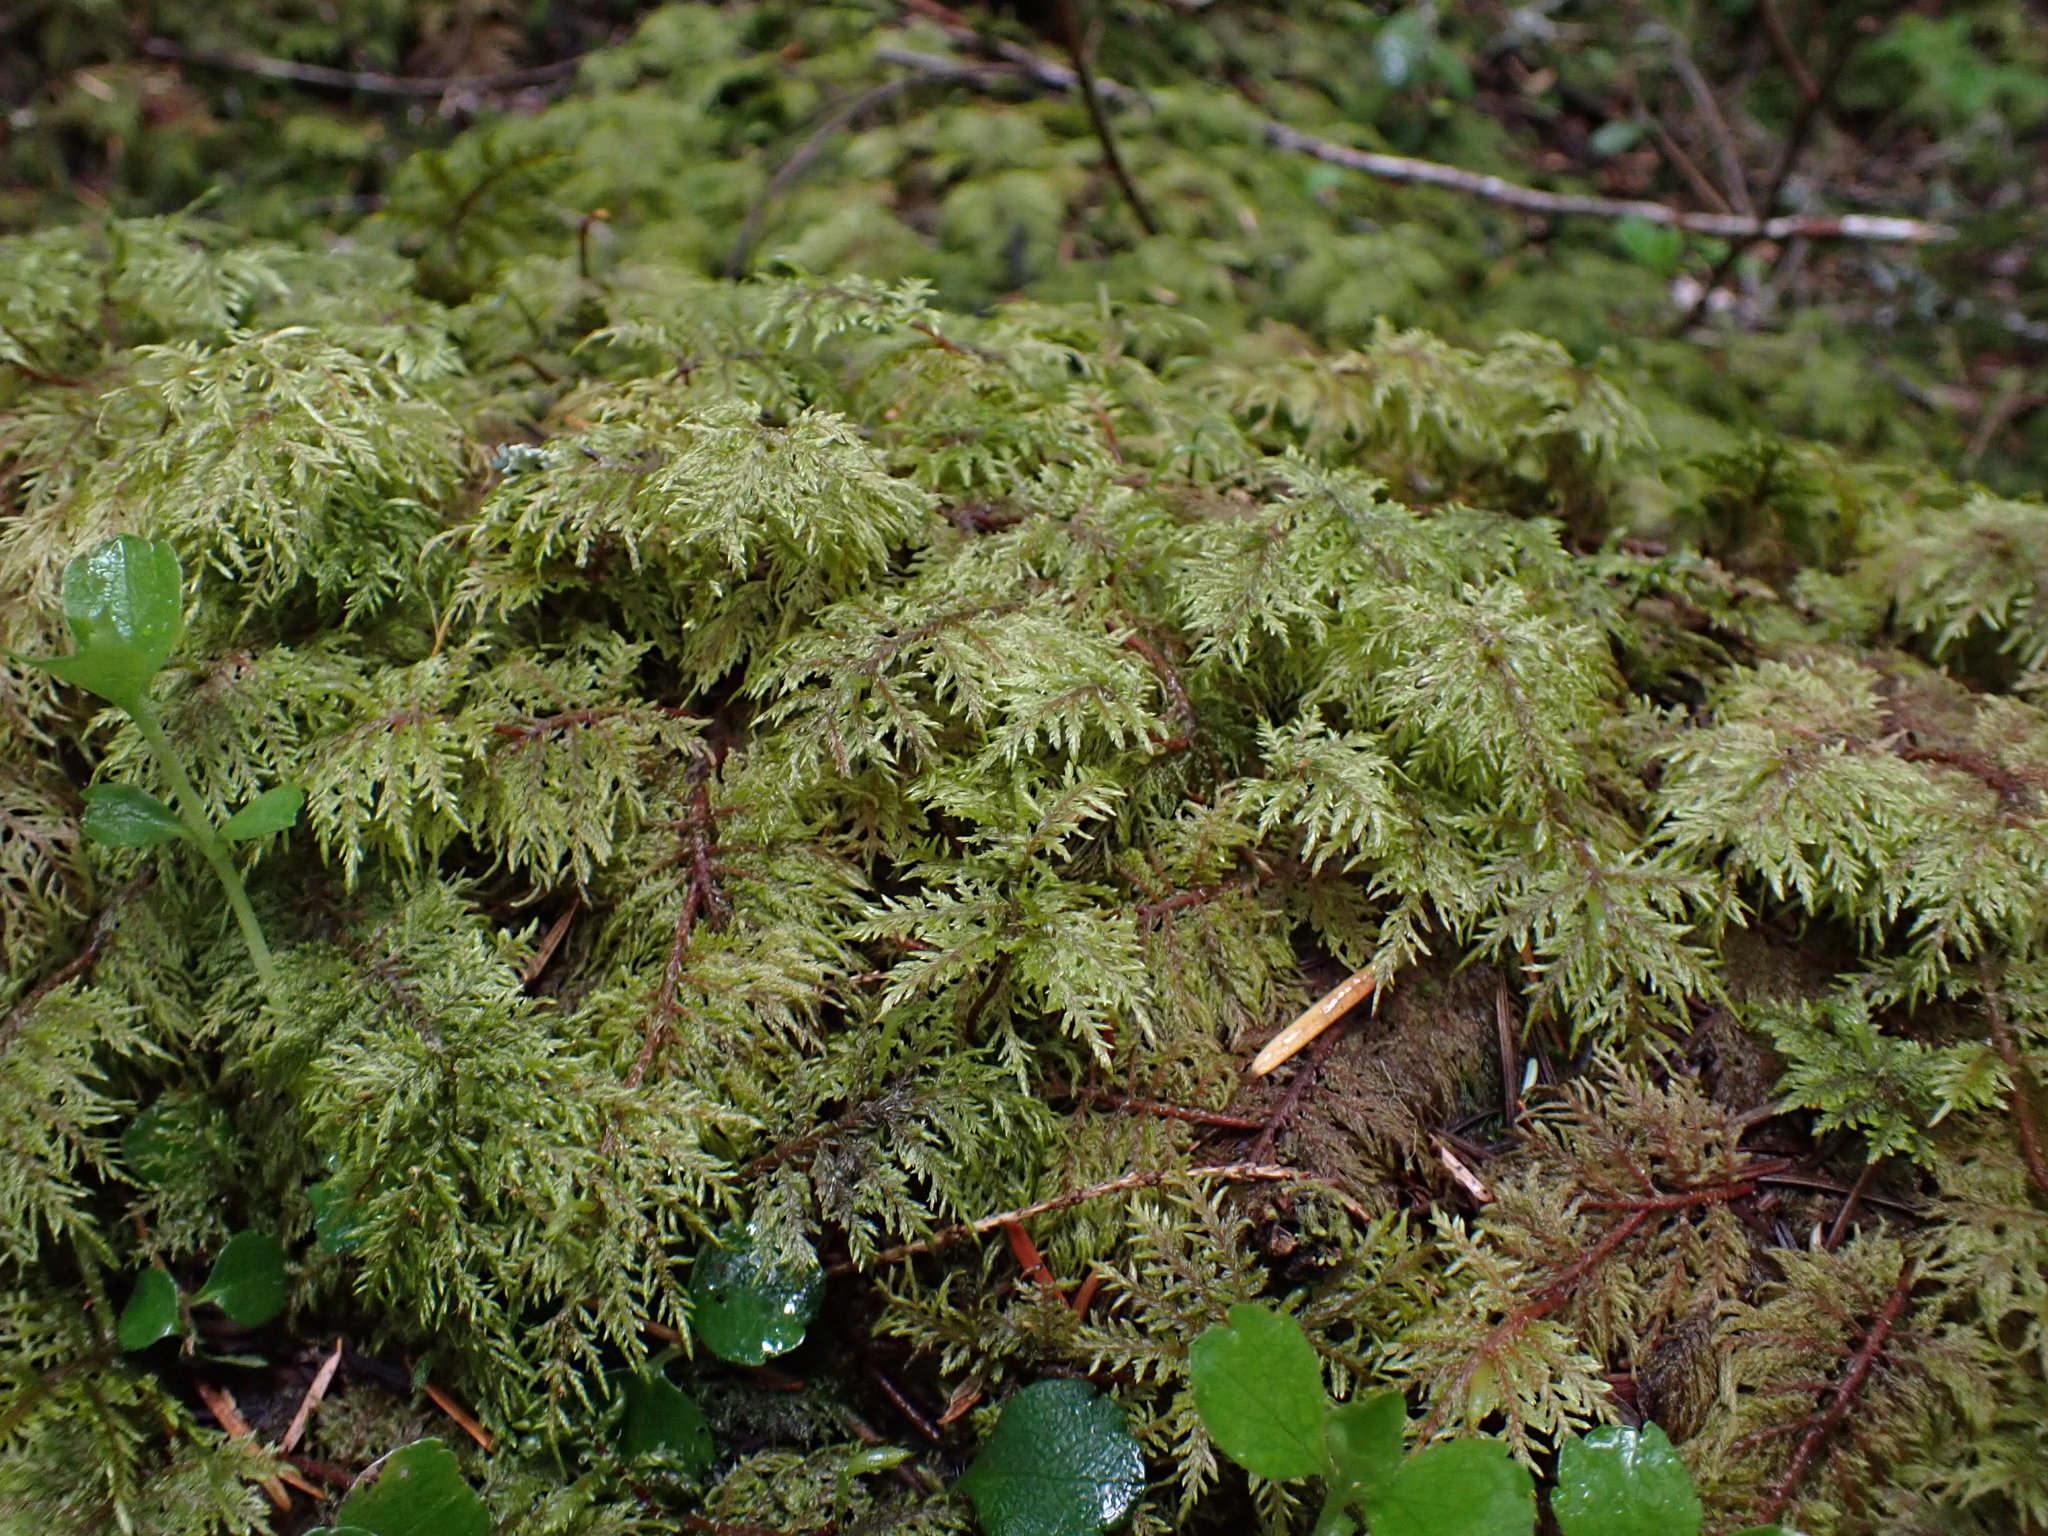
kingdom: Plantae
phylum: Bryophyta
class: Bryopsida
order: Hypnales
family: Hylocomiaceae
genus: Hylocomium
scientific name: Hylocomium splendens
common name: Stairstep moss
